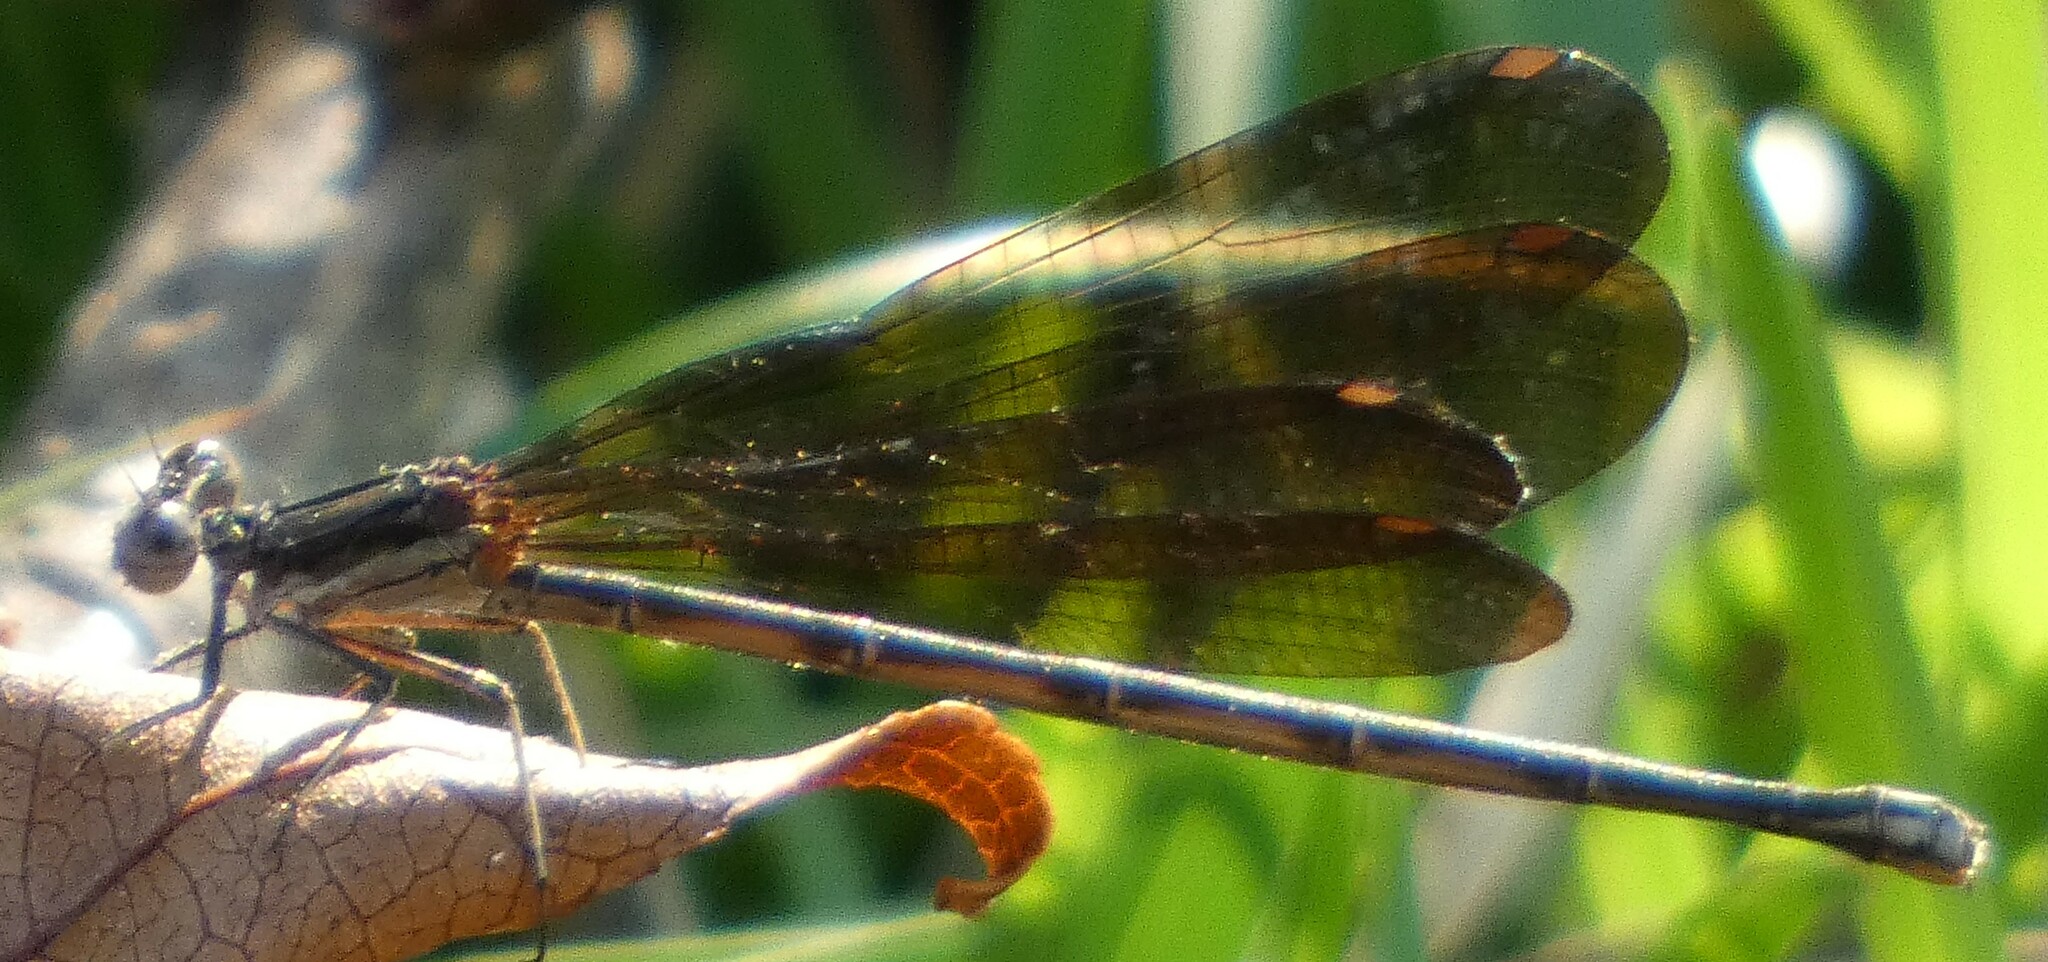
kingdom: Animalia
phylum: Arthropoda
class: Insecta
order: Odonata
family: Coenagrionidae
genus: Argia
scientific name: Argia fumipennis
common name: Variable dancer
